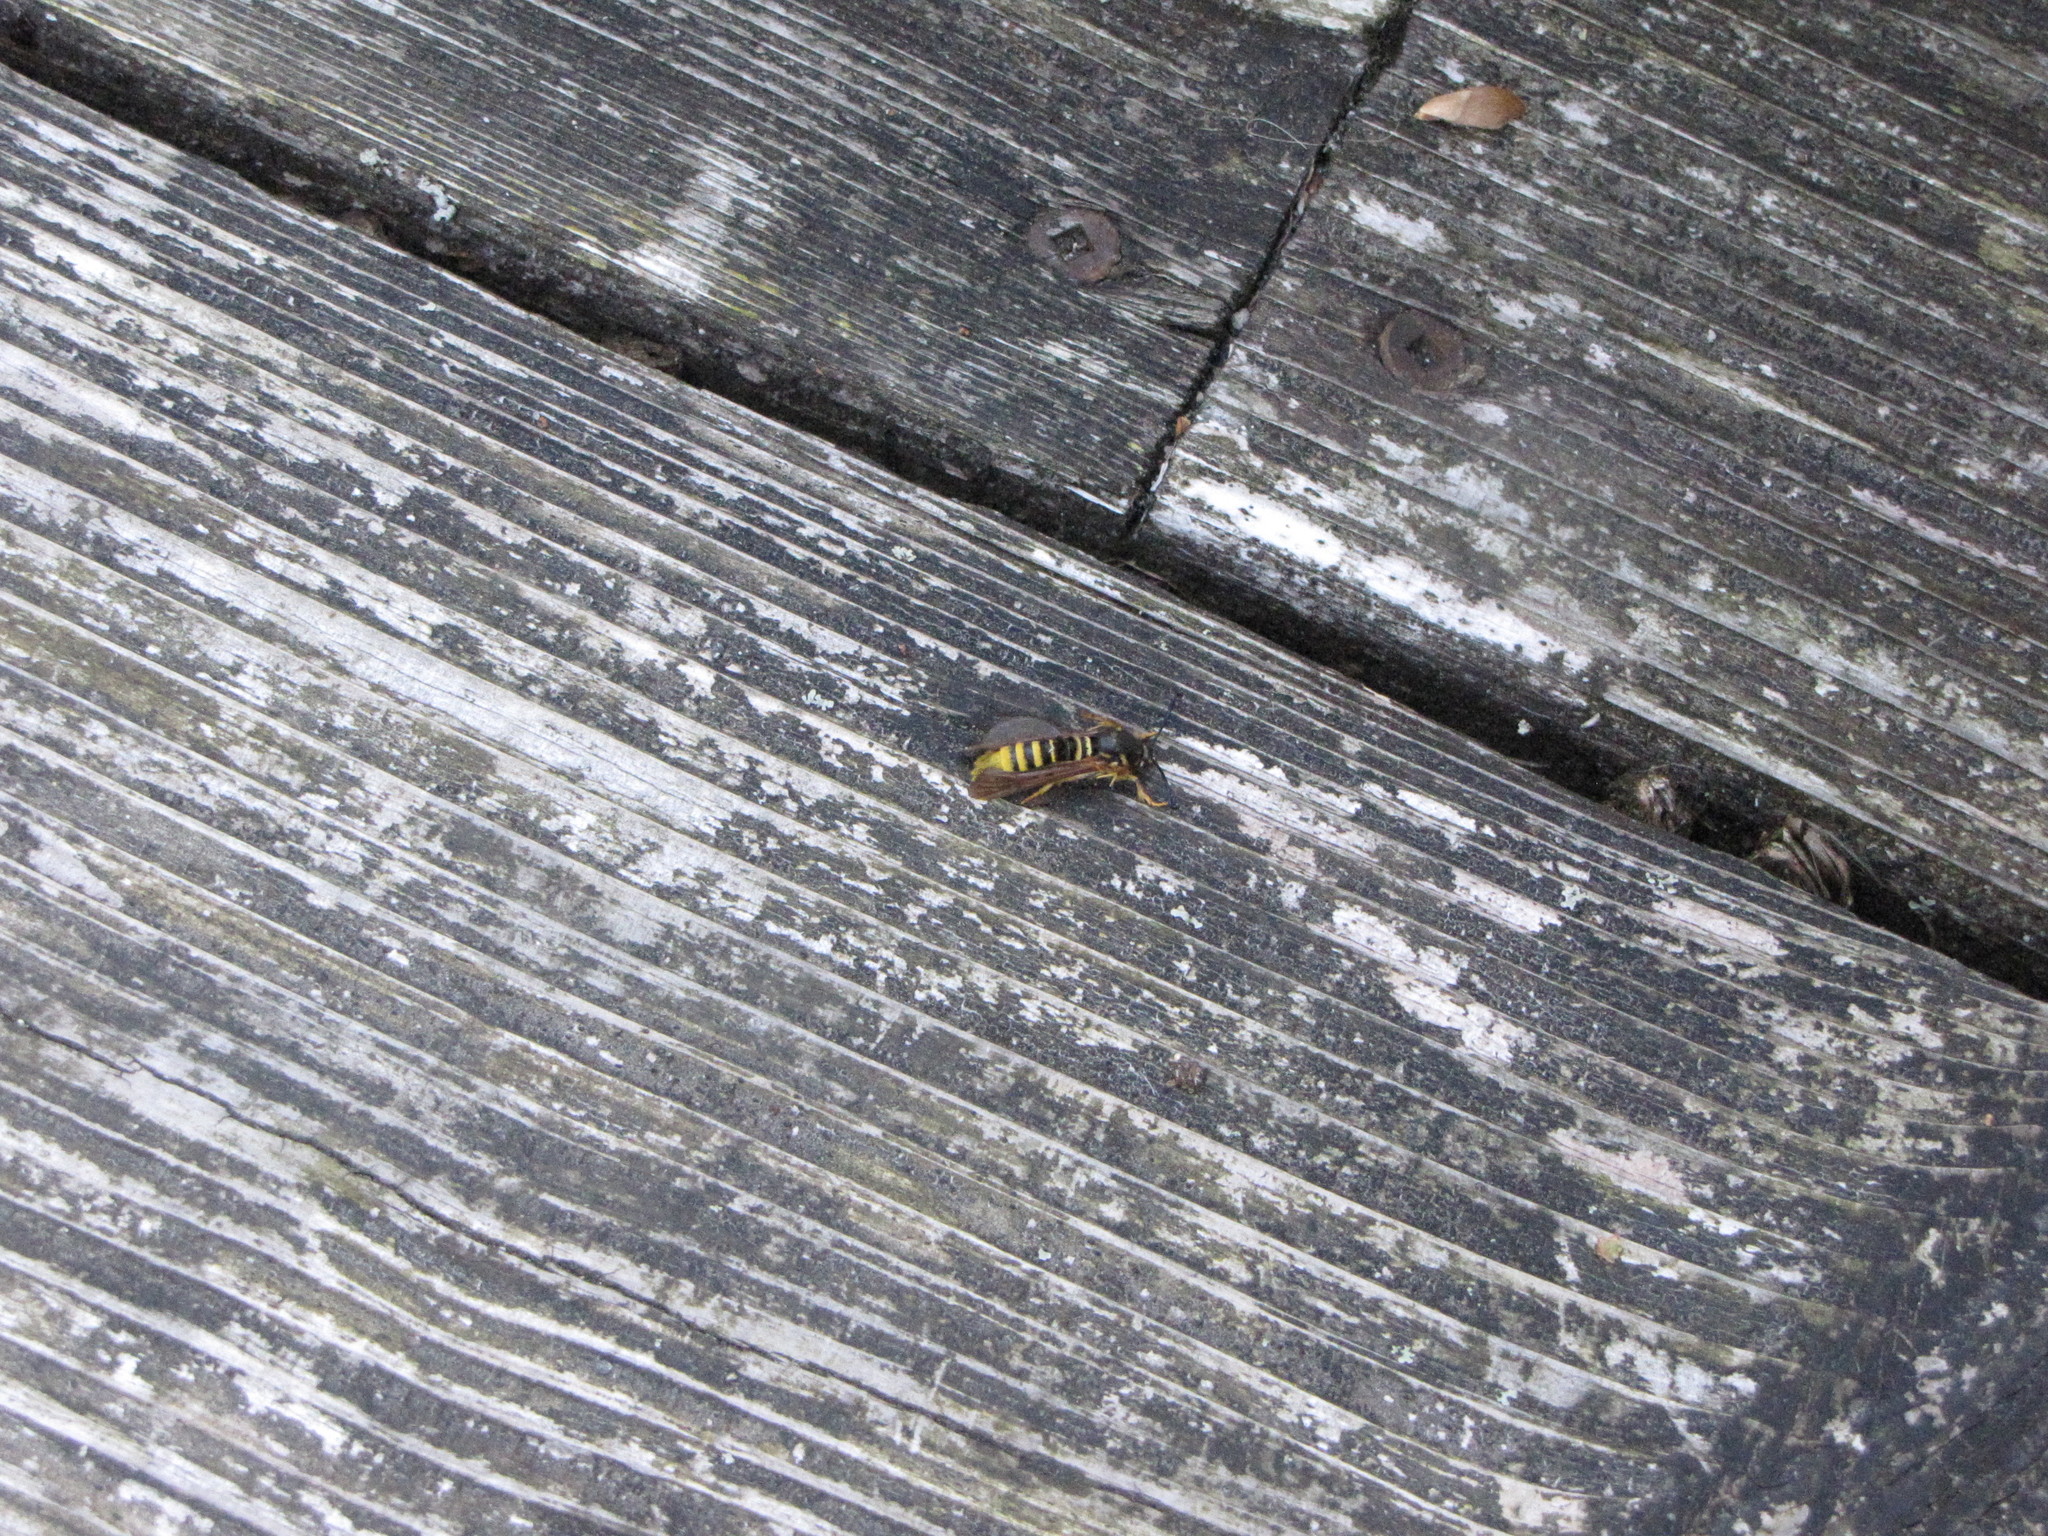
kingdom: Animalia
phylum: Arthropoda
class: Insecta
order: Lepidoptera
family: Sesiidae
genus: Pennisetia
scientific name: Pennisetia marginatum
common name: Raspberry crown borer
